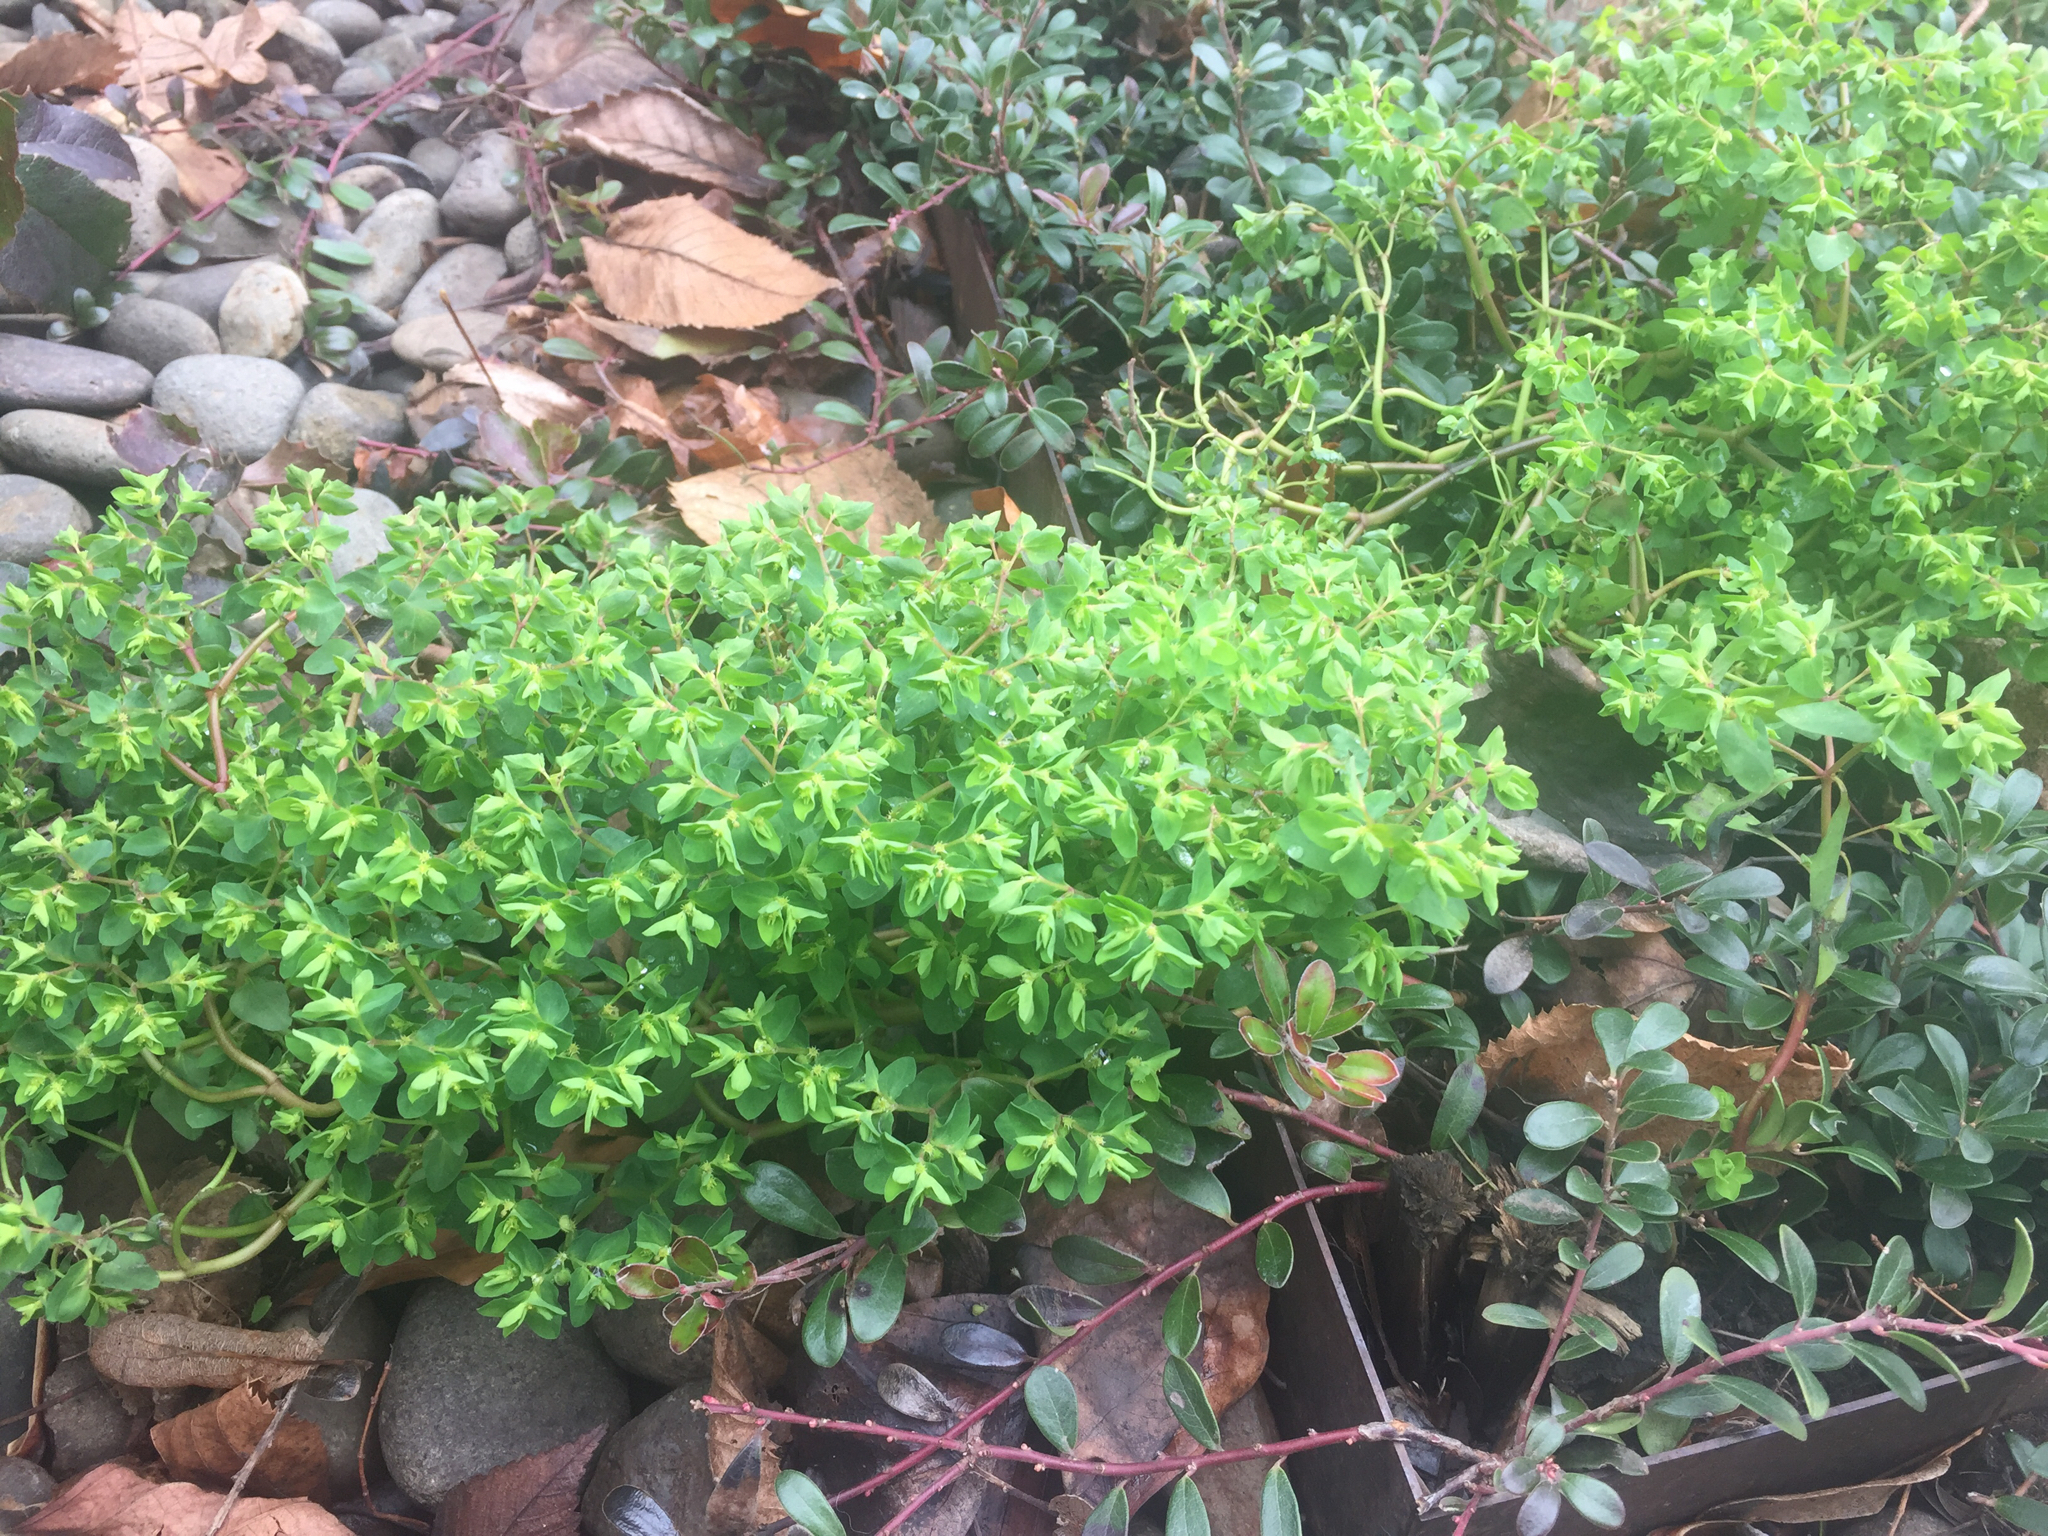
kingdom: Plantae
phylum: Tracheophyta
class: Magnoliopsida
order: Malpighiales
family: Euphorbiaceae
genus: Euphorbia
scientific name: Euphorbia peplus
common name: Petty spurge
